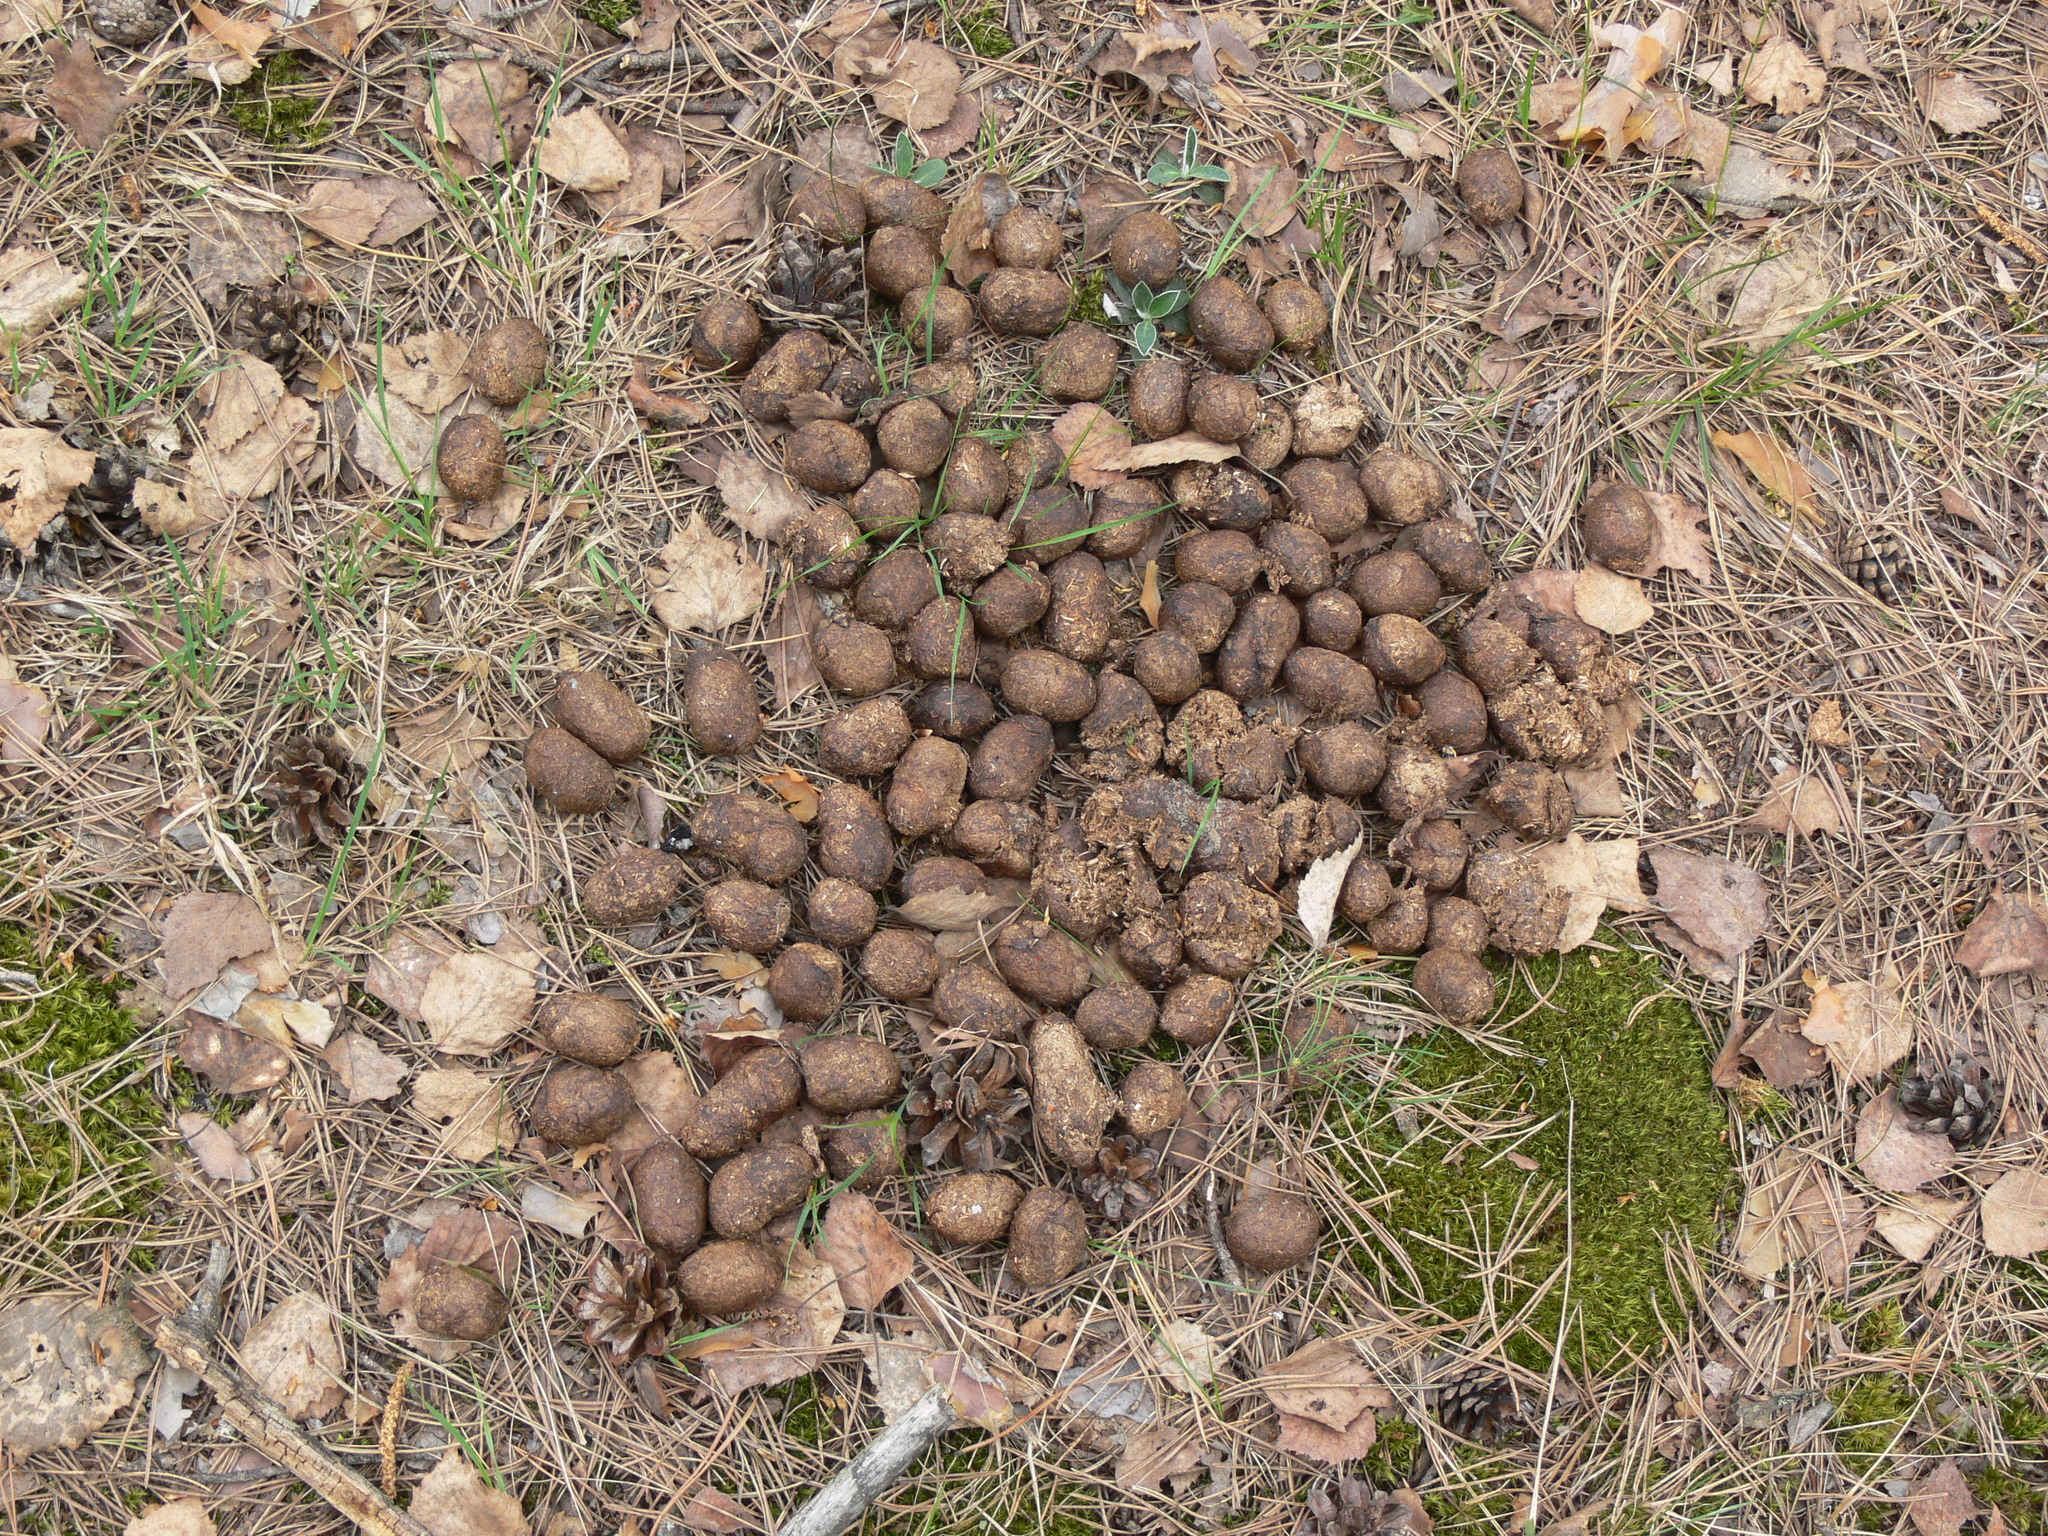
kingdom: Animalia
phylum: Chordata
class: Mammalia
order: Artiodactyla
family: Cervidae
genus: Alces
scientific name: Alces alces
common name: Moose
